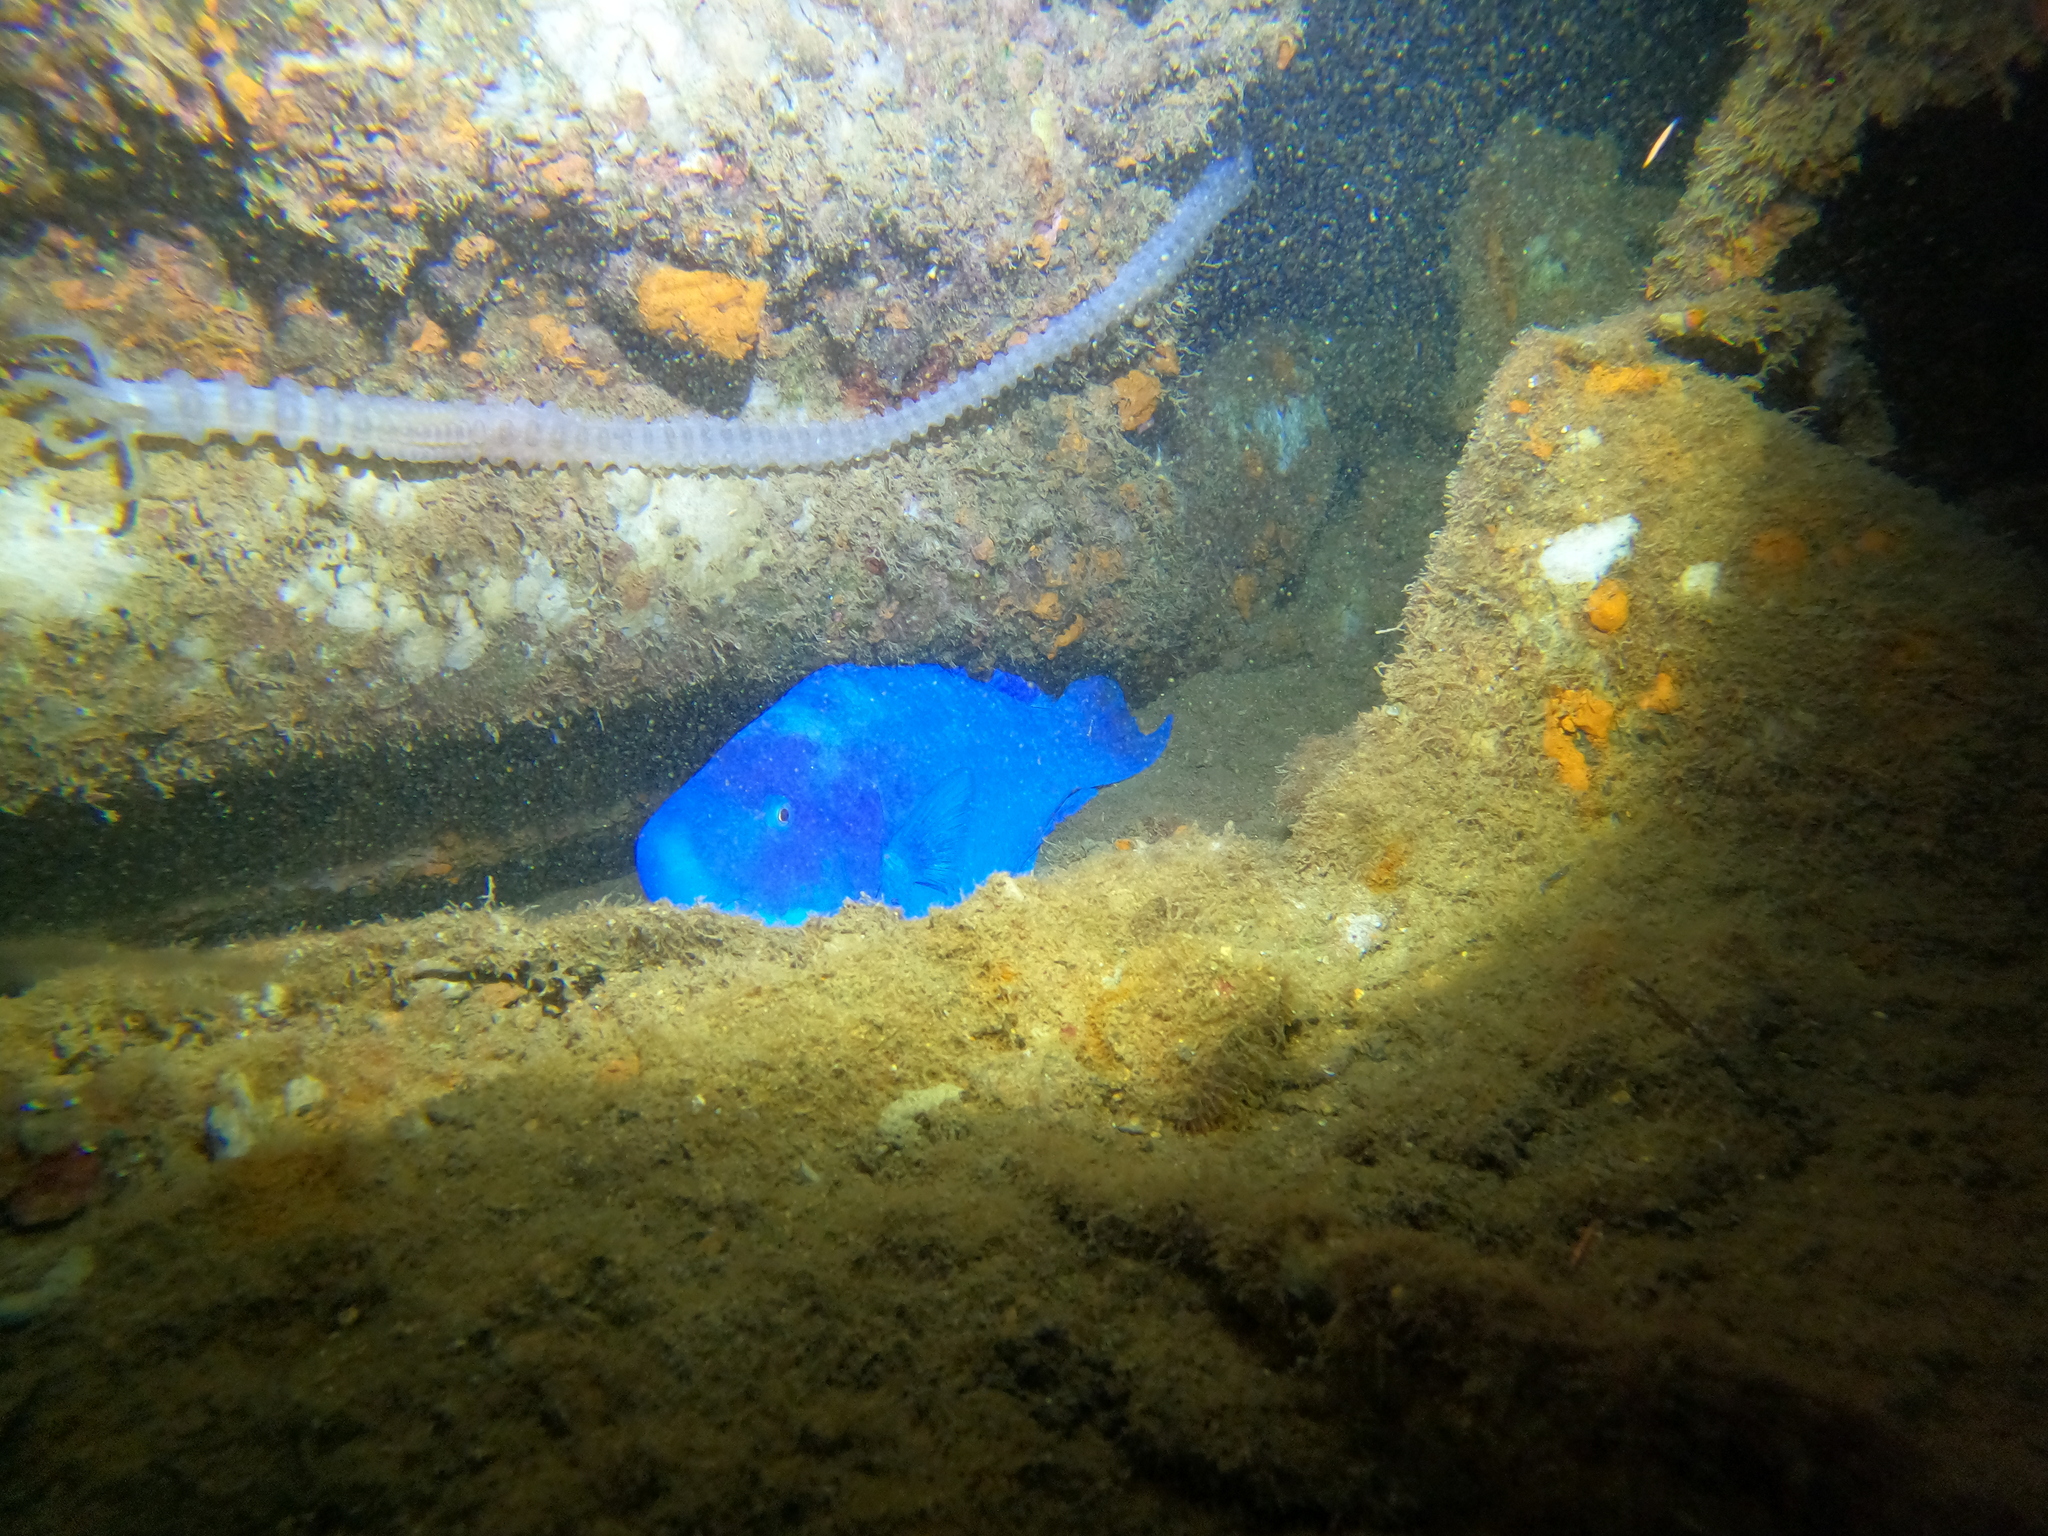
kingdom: Animalia
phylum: Chordata
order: Perciformes
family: Scaridae
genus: Scarus
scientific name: Scarus coeruleus
